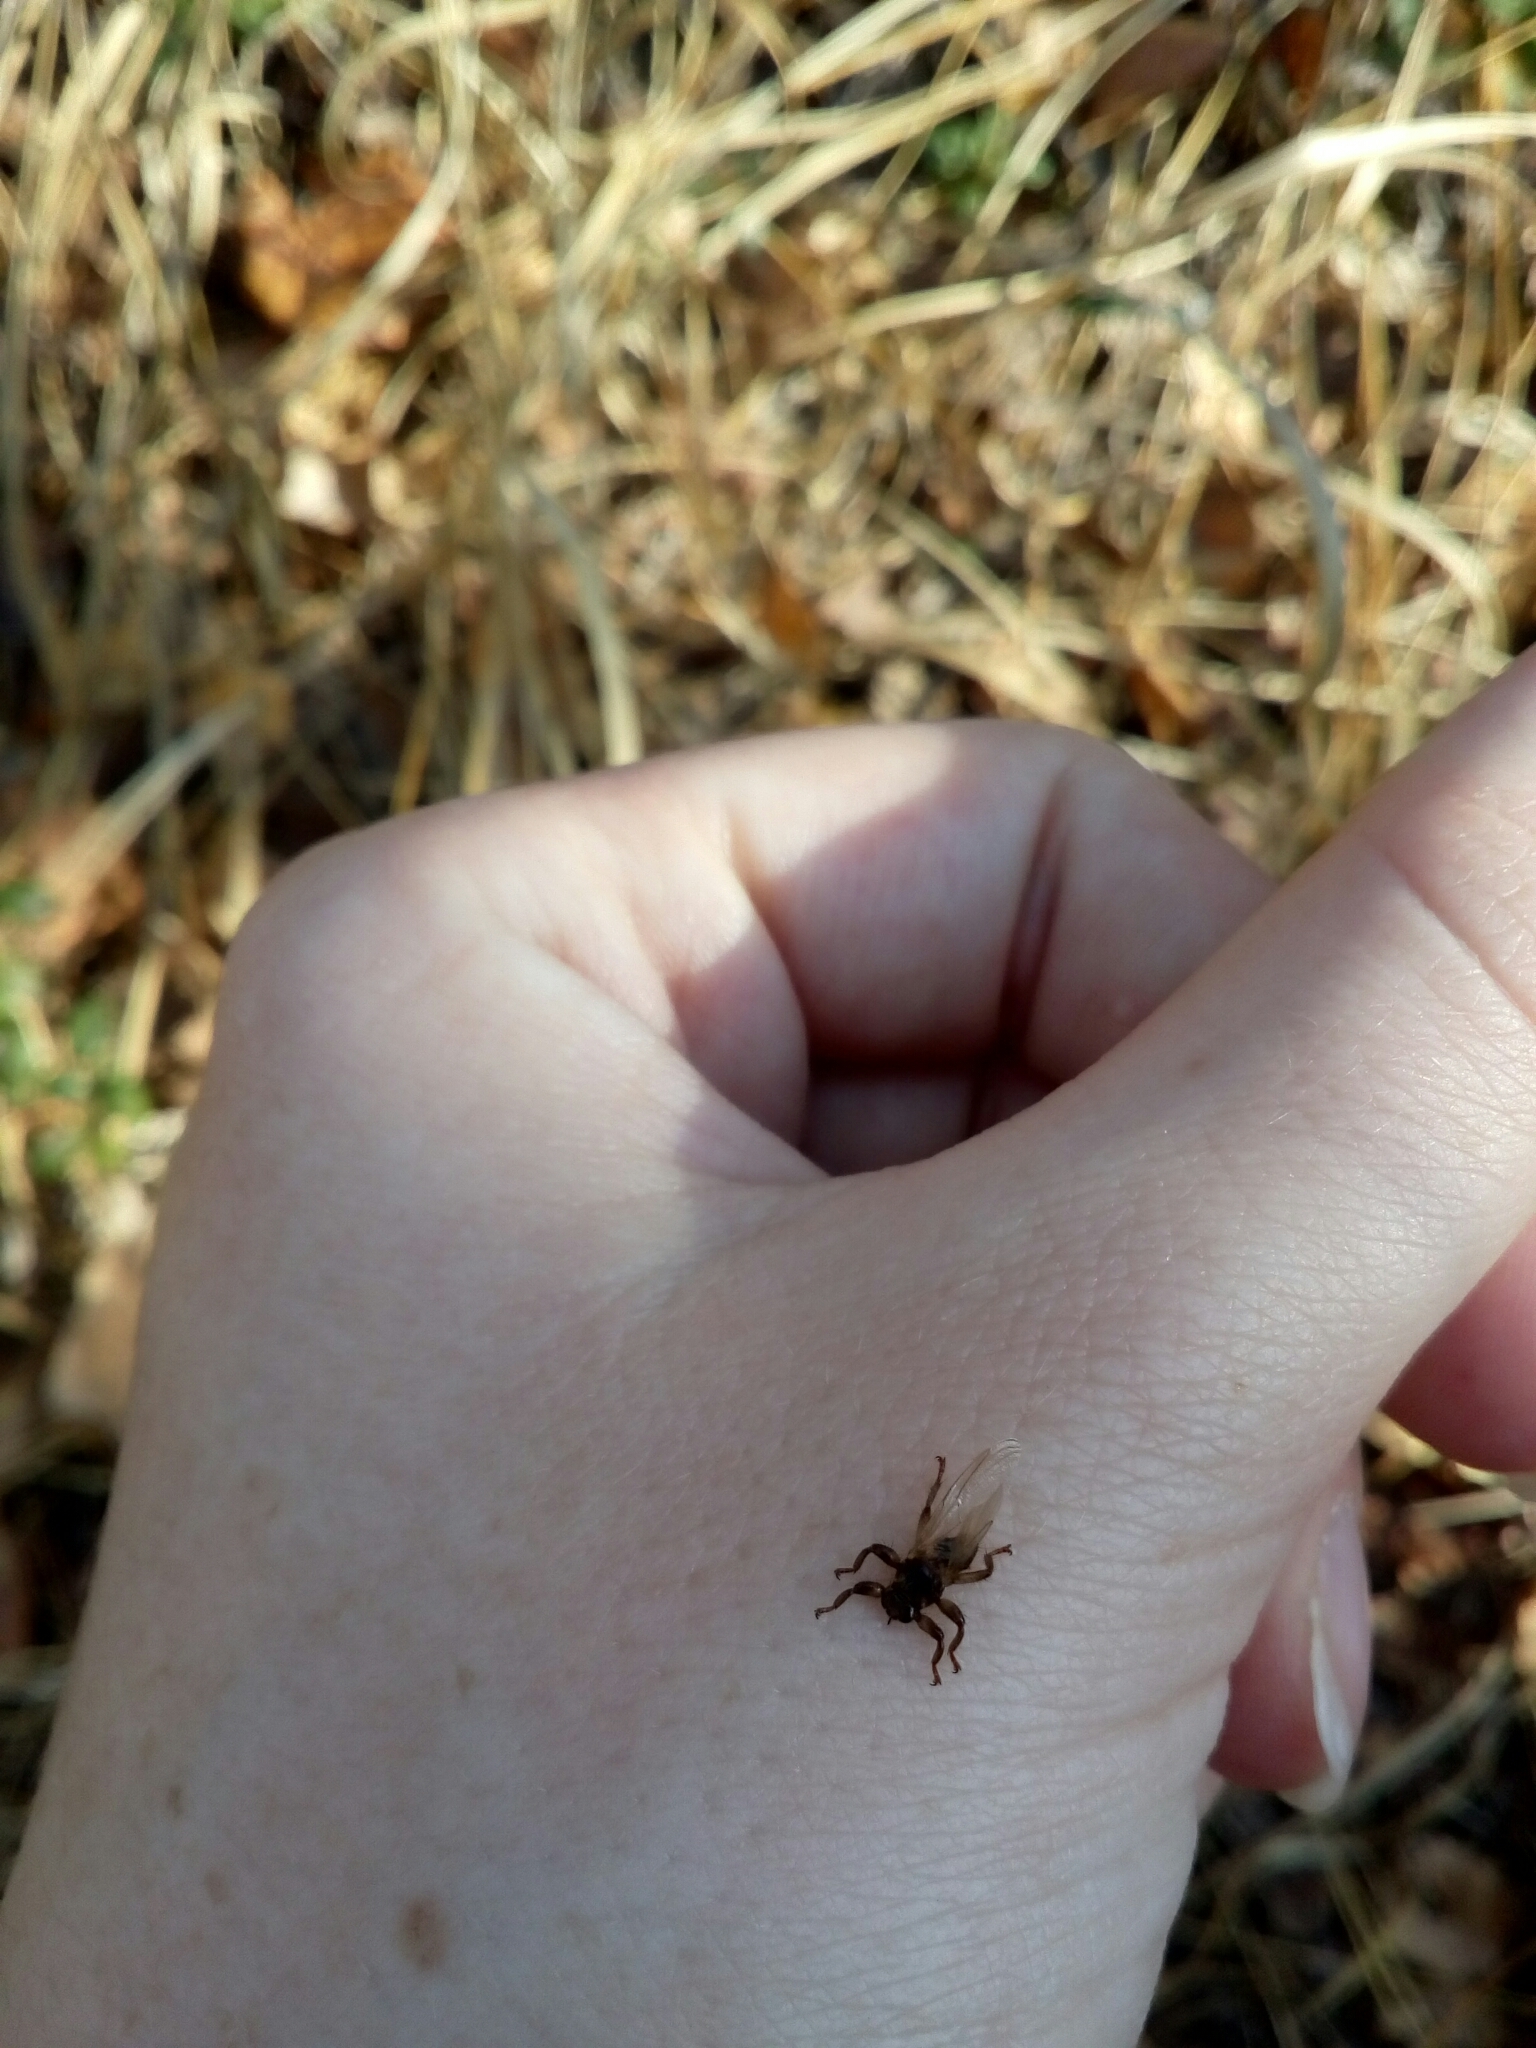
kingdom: Animalia
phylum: Arthropoda
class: Insecta
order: Diptera
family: Hippoboscidae
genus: Lipoptena
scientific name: Lipoptena cervi
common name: Deer ked
